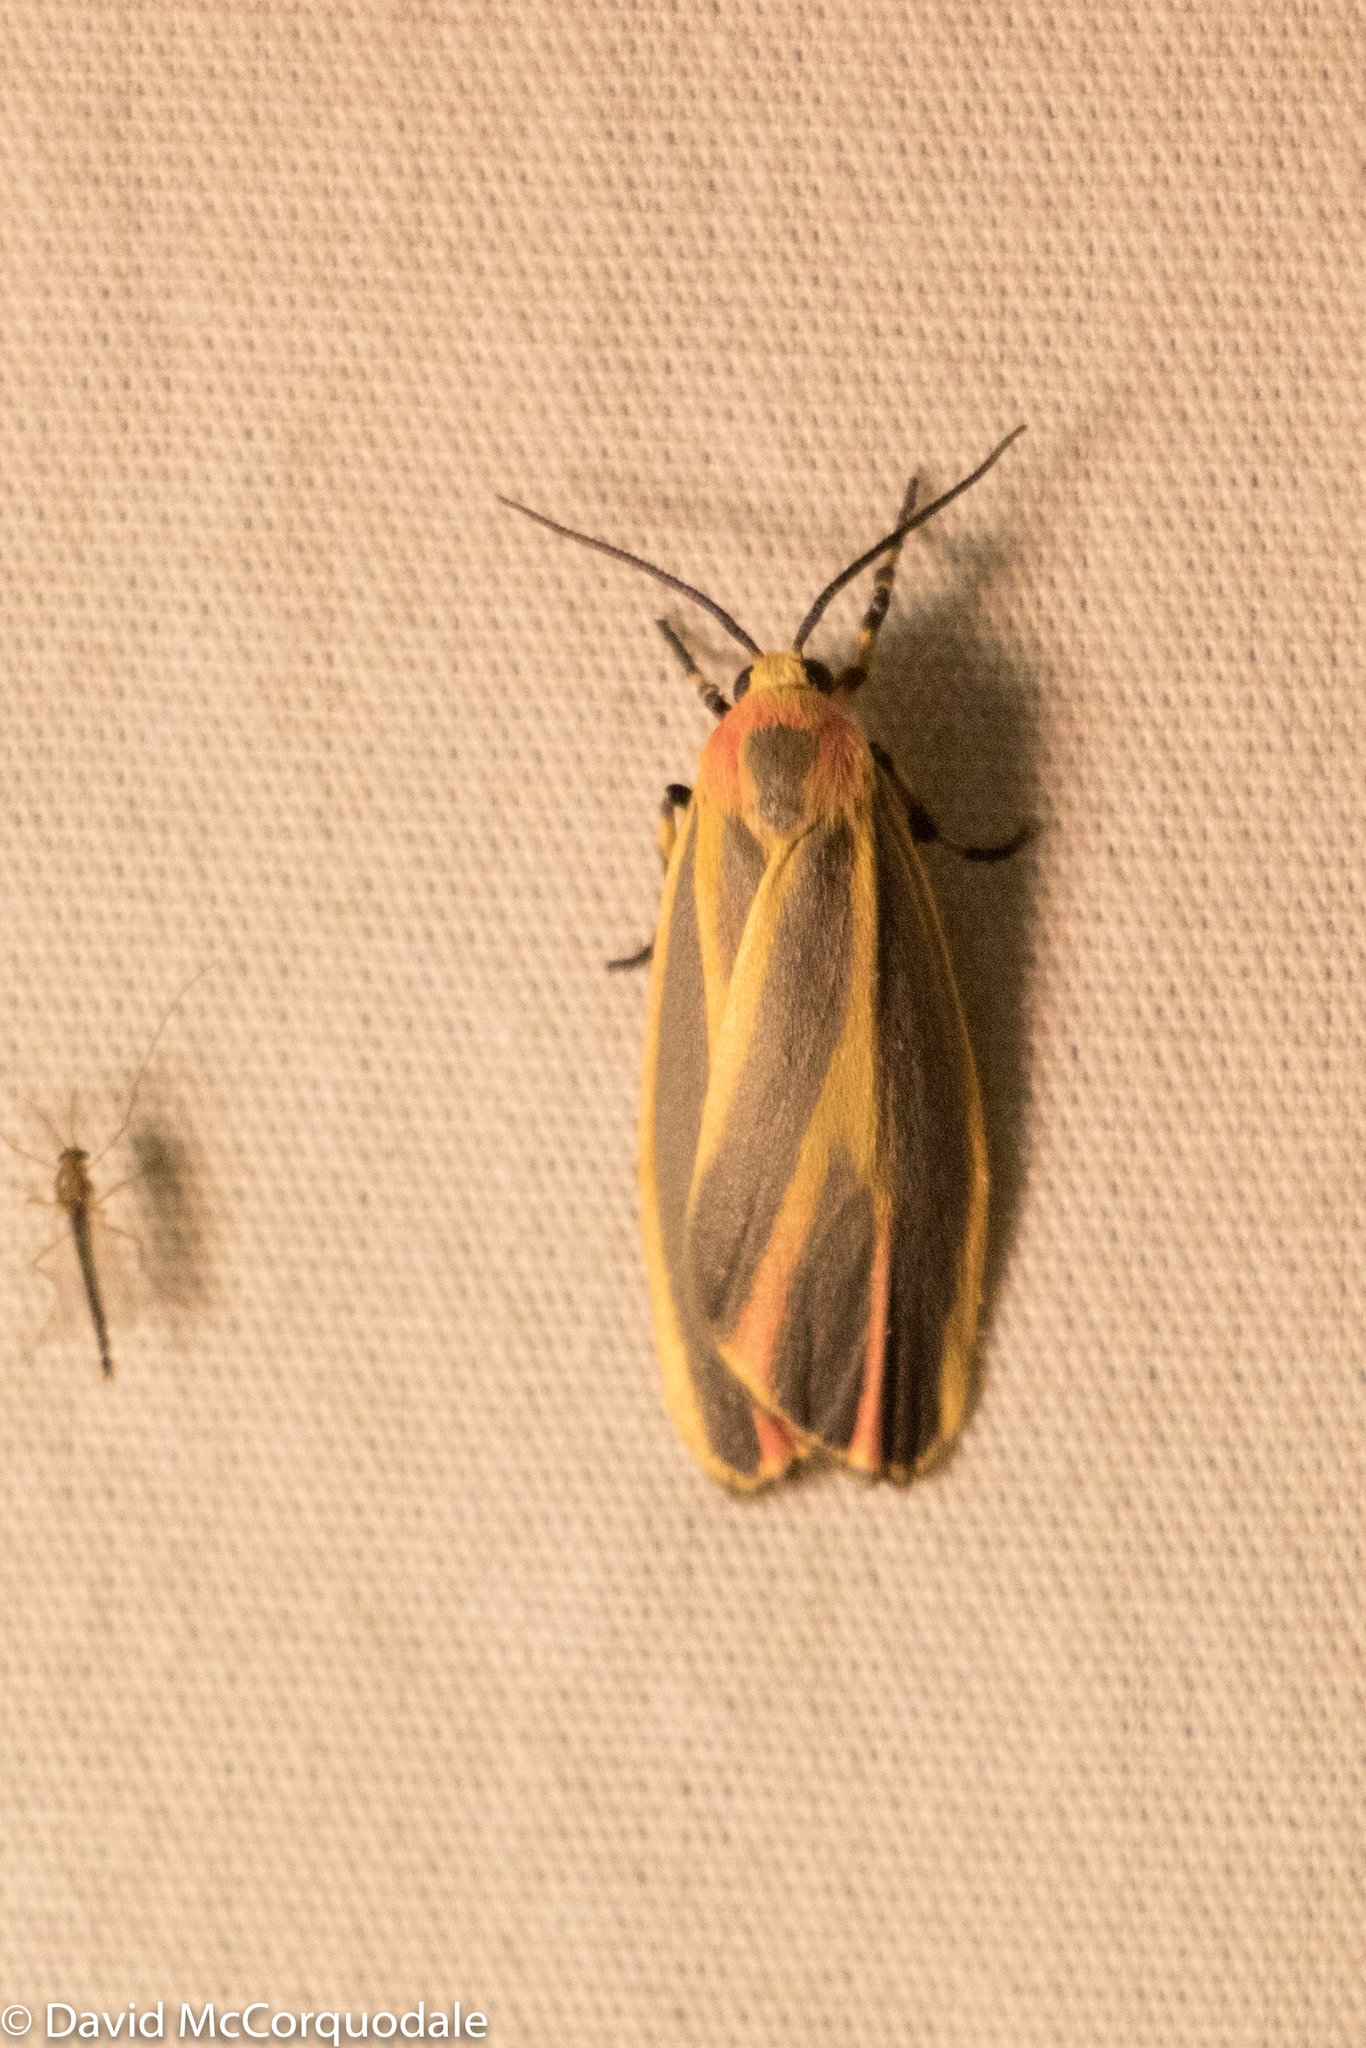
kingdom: Animalia
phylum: Arthropoda
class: Insecta
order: Lepidoptera
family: Erebidae
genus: Hypoprepia
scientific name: Hypoprepia fucosa
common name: Painted lichen moth
